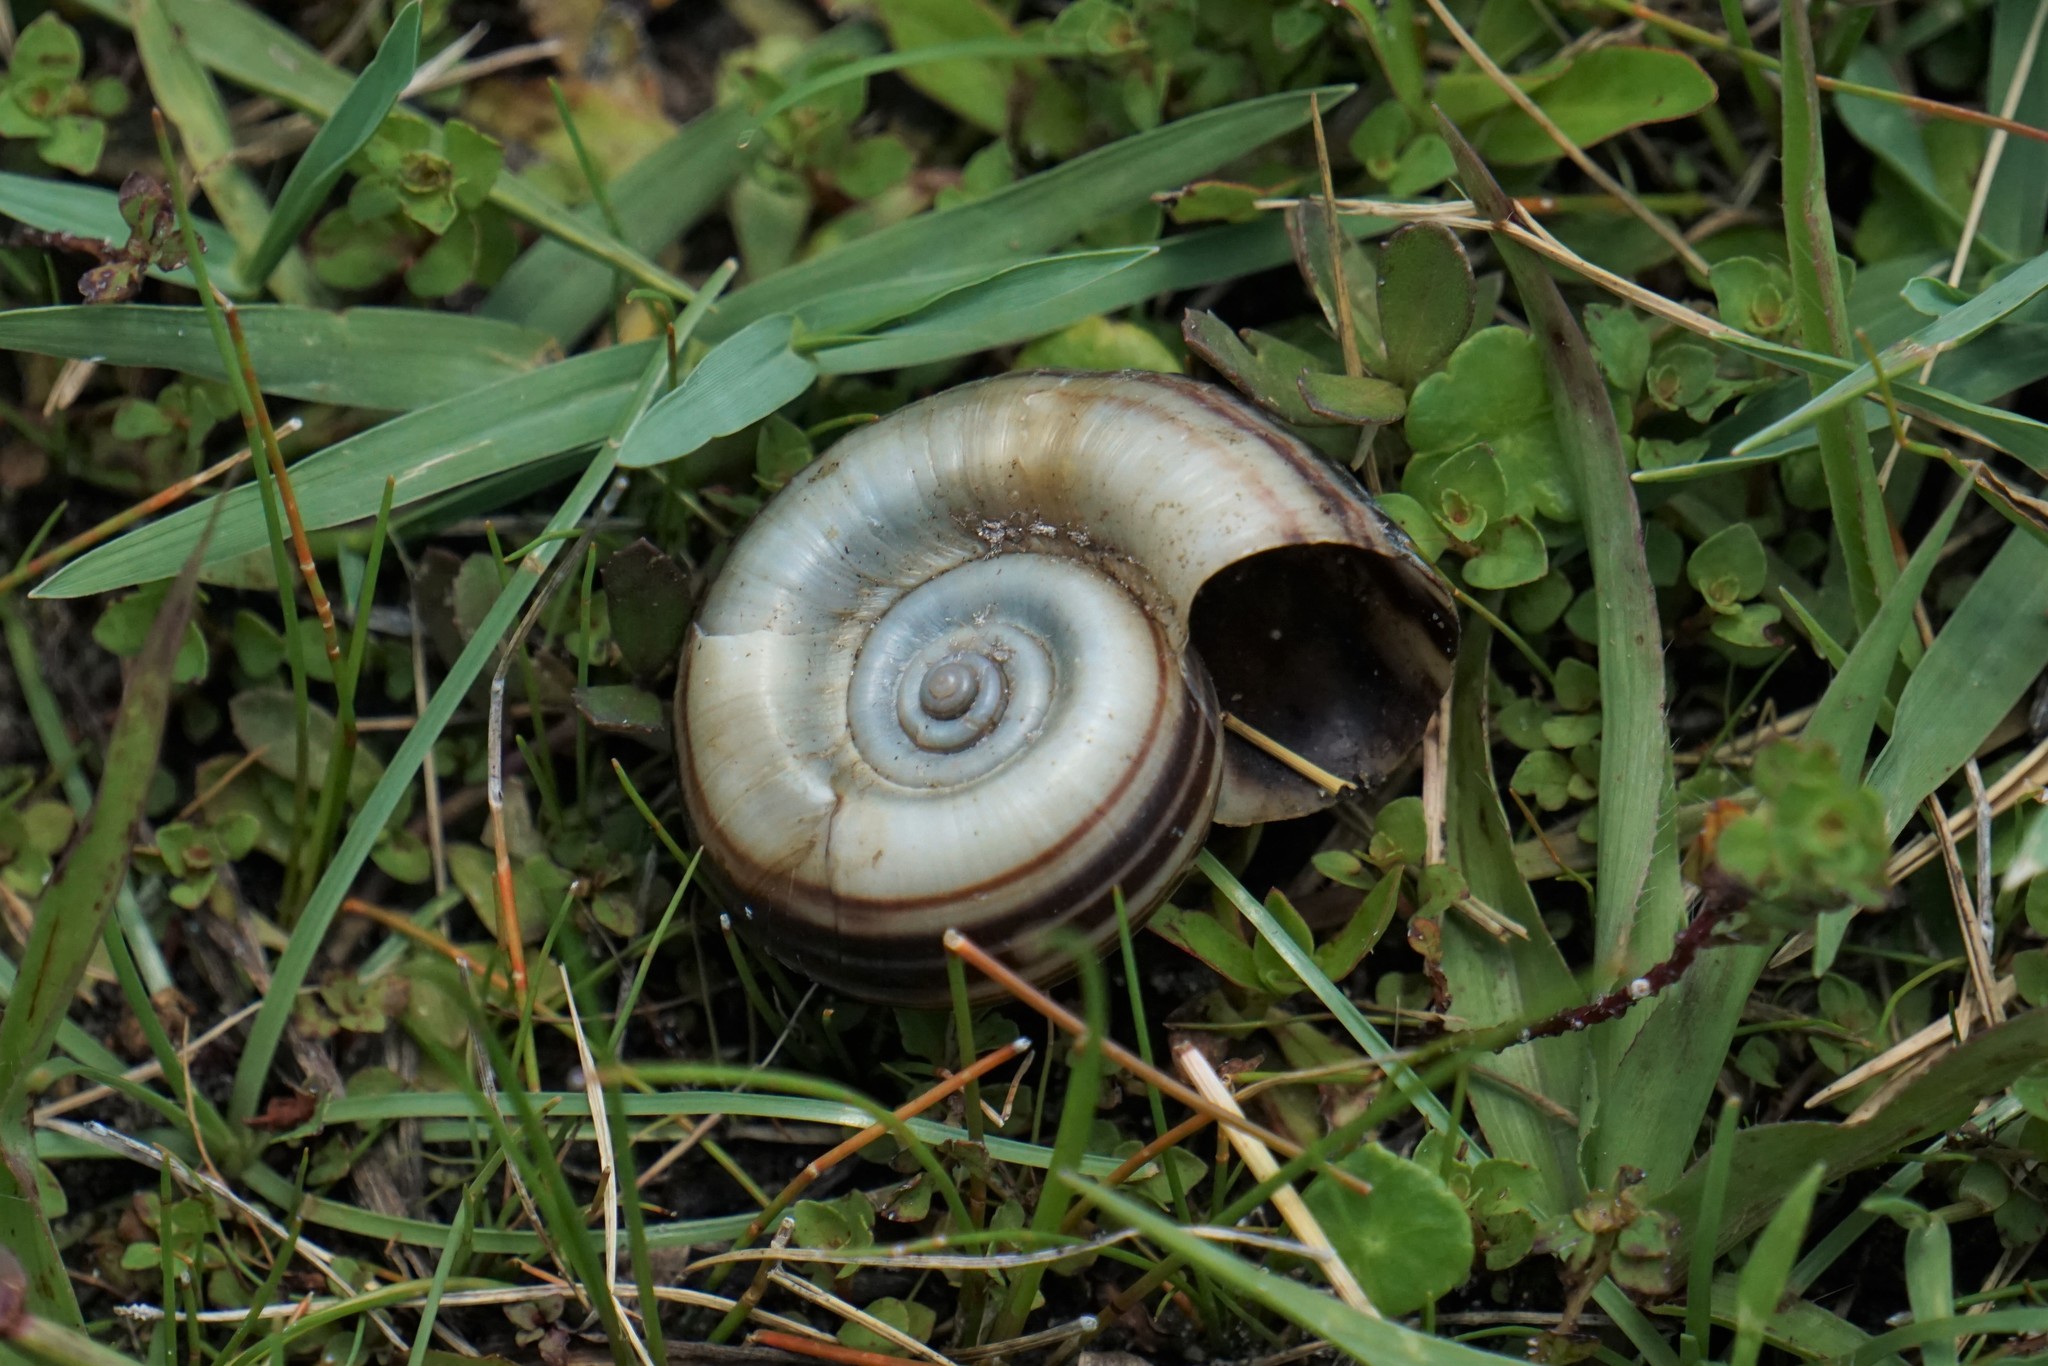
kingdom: Animalia
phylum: Mollusca
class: Gastropoda
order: Architaenioglossa
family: Ampullariidae
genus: Marisa
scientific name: Marisa cornuarietis
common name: Giant ramshorn snail
